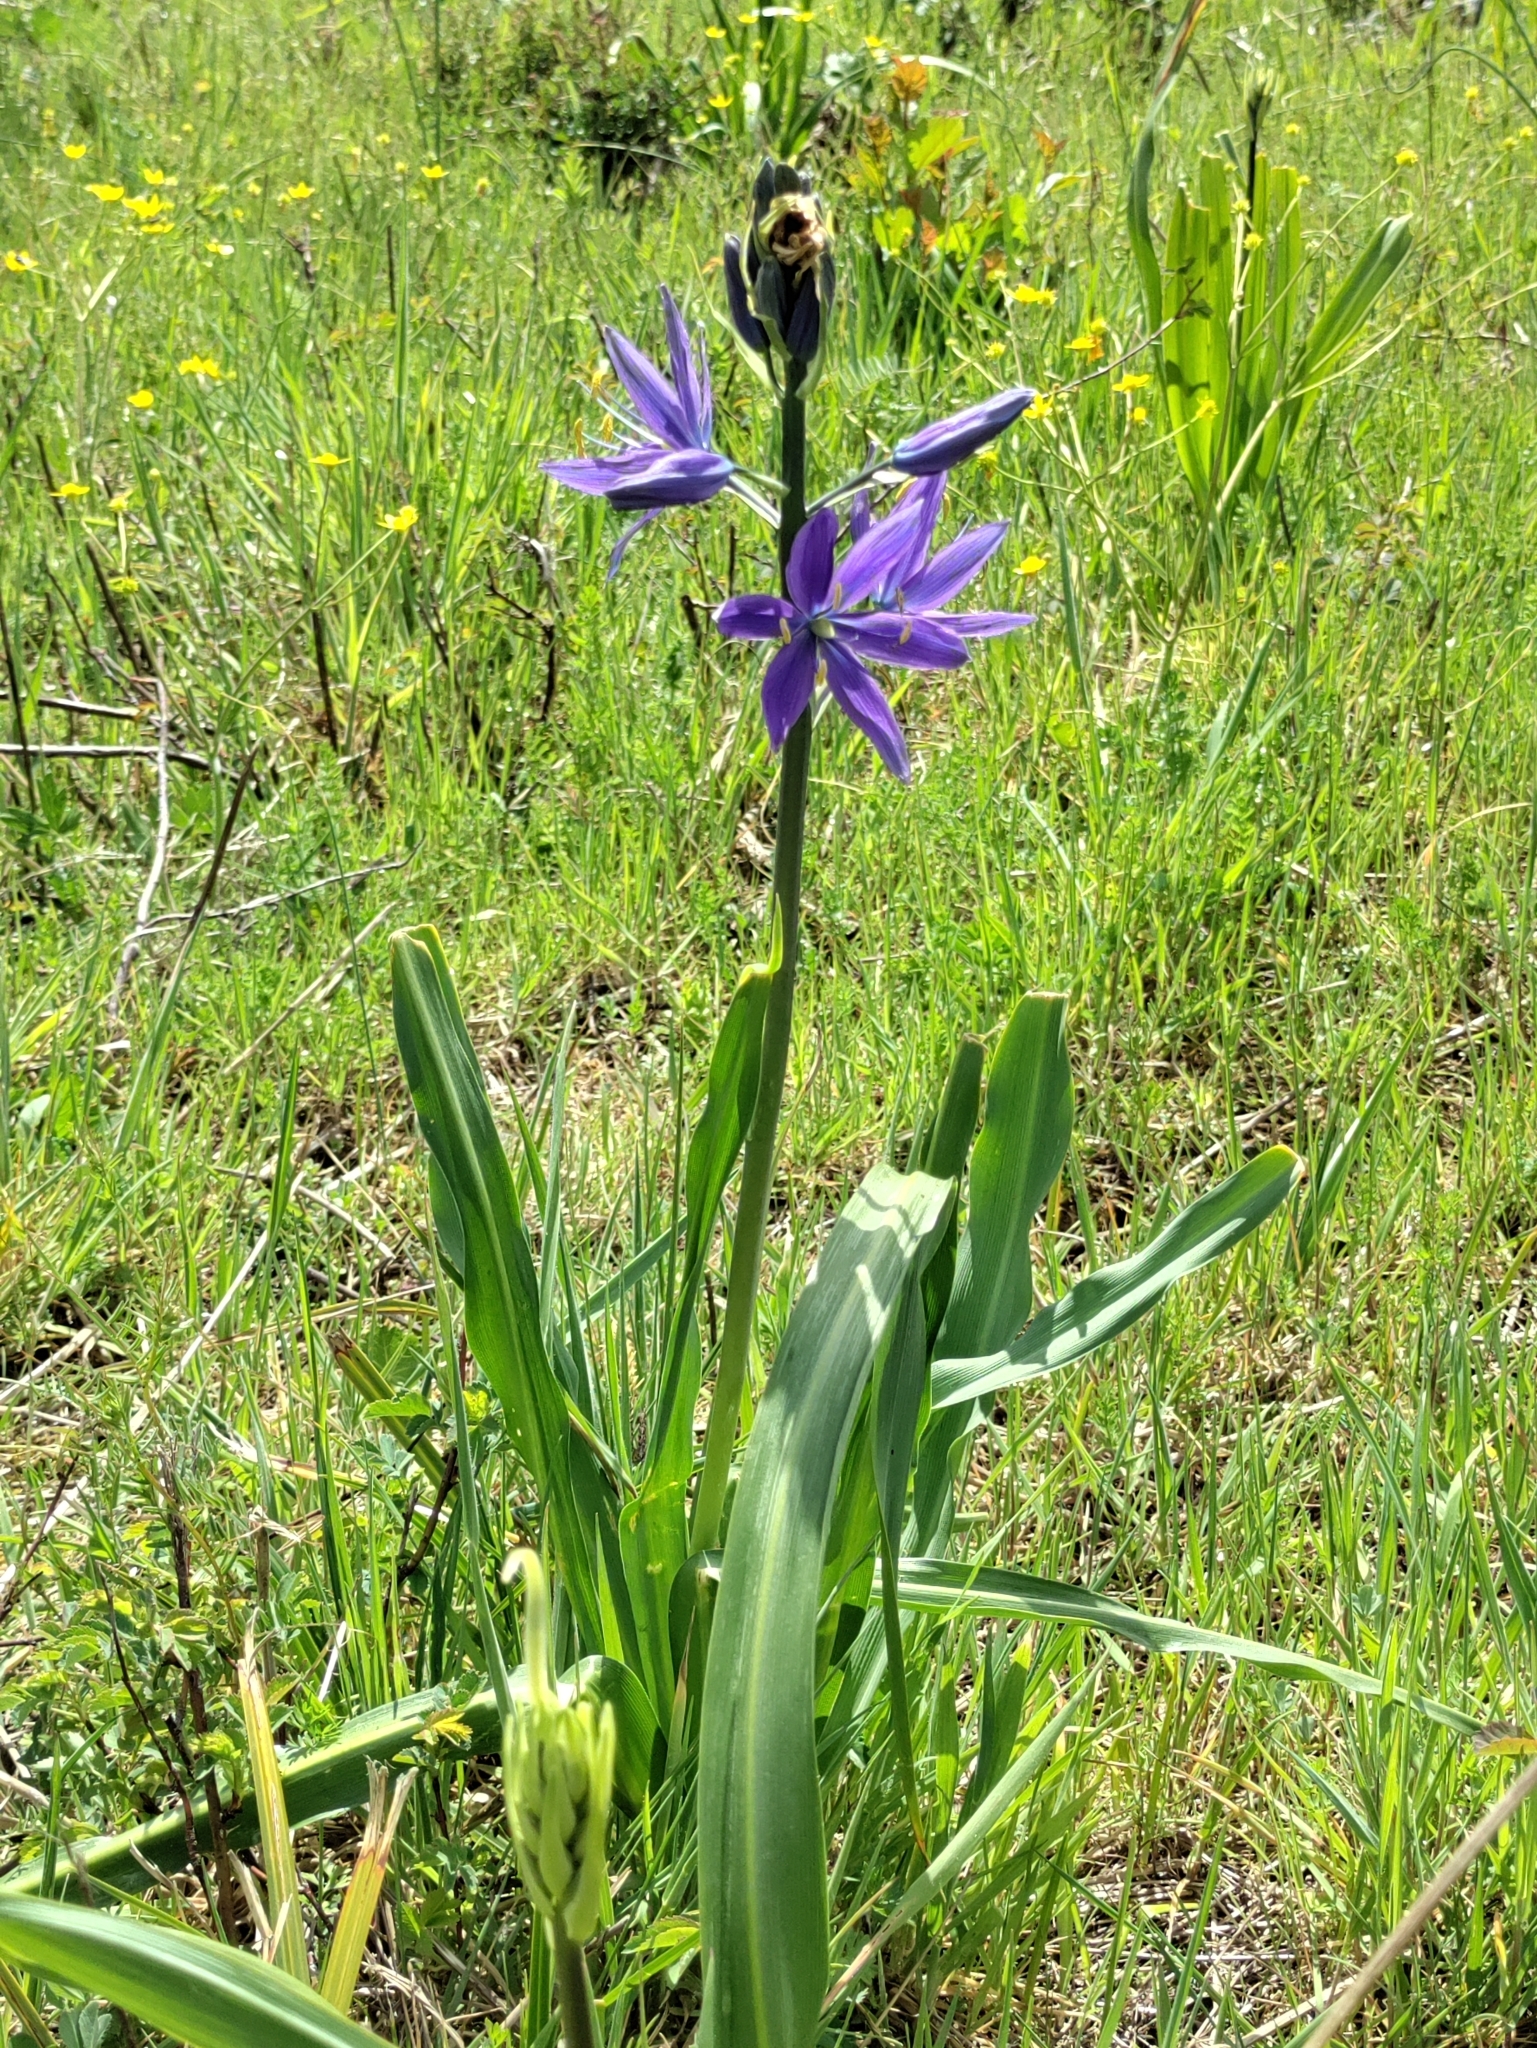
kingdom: Plantae
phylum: Tracheophyta
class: Liliopsida
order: Asparagales
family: Asparagaceae
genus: Camassia
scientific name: Camassia leichtlinii
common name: Leichtlin's camas
